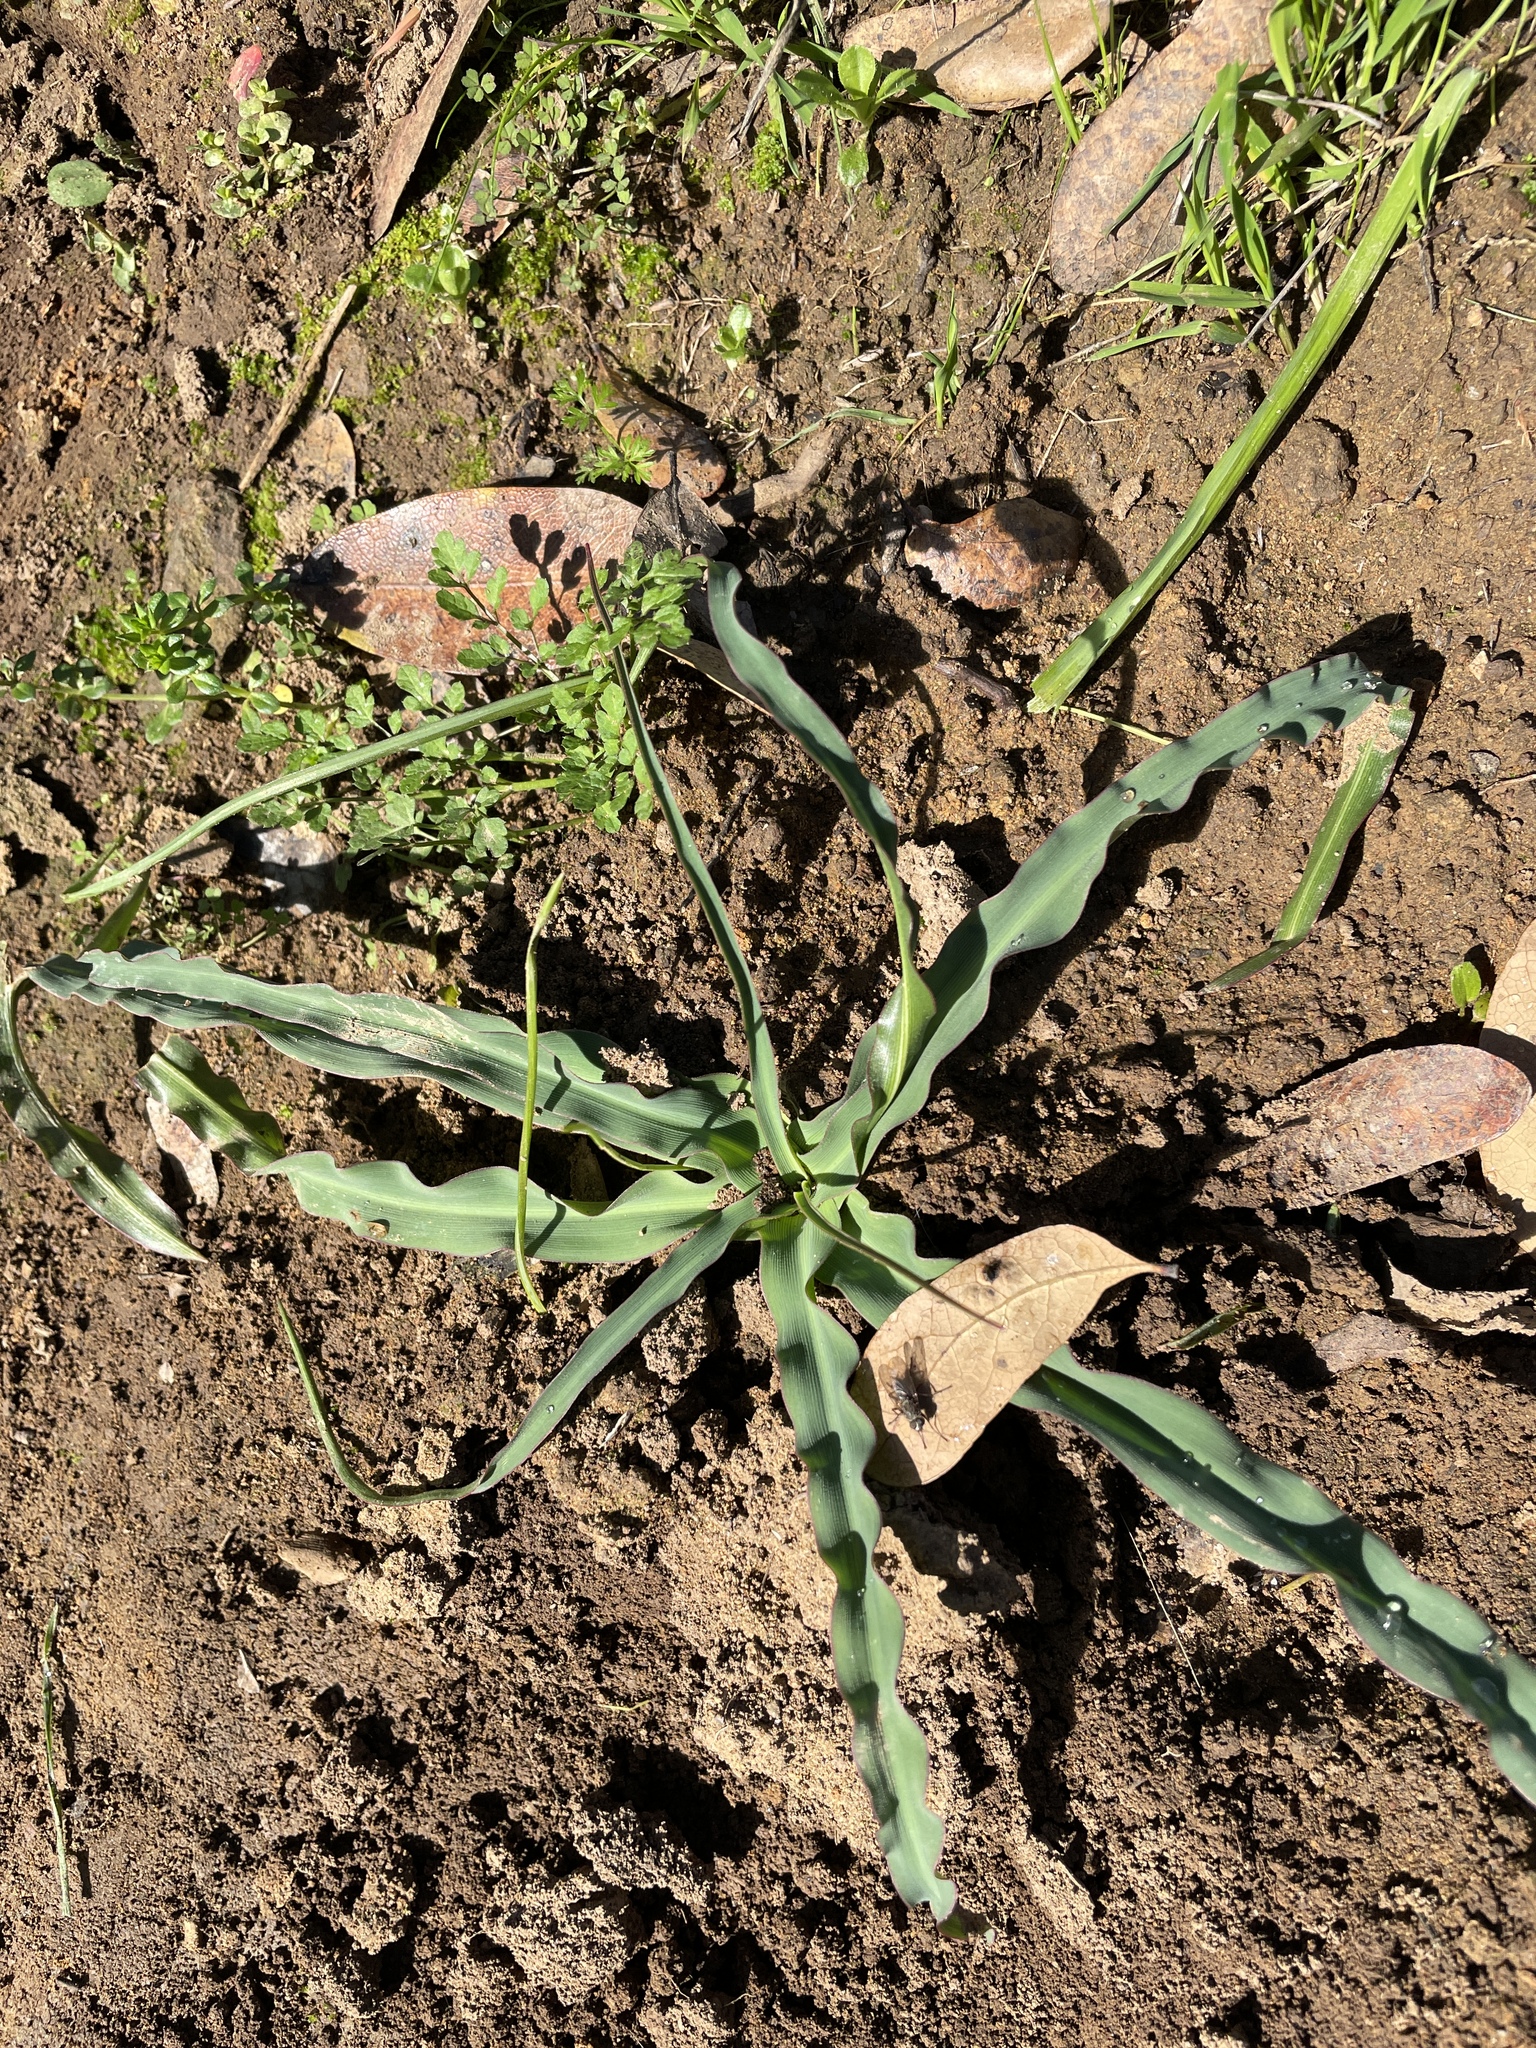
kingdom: Plantae
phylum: Tracheophyta
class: Liliopsida
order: Asparagales
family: Asparagaceae
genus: Chlorogalum
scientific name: Chlorogalum pomeridianum
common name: Amole
